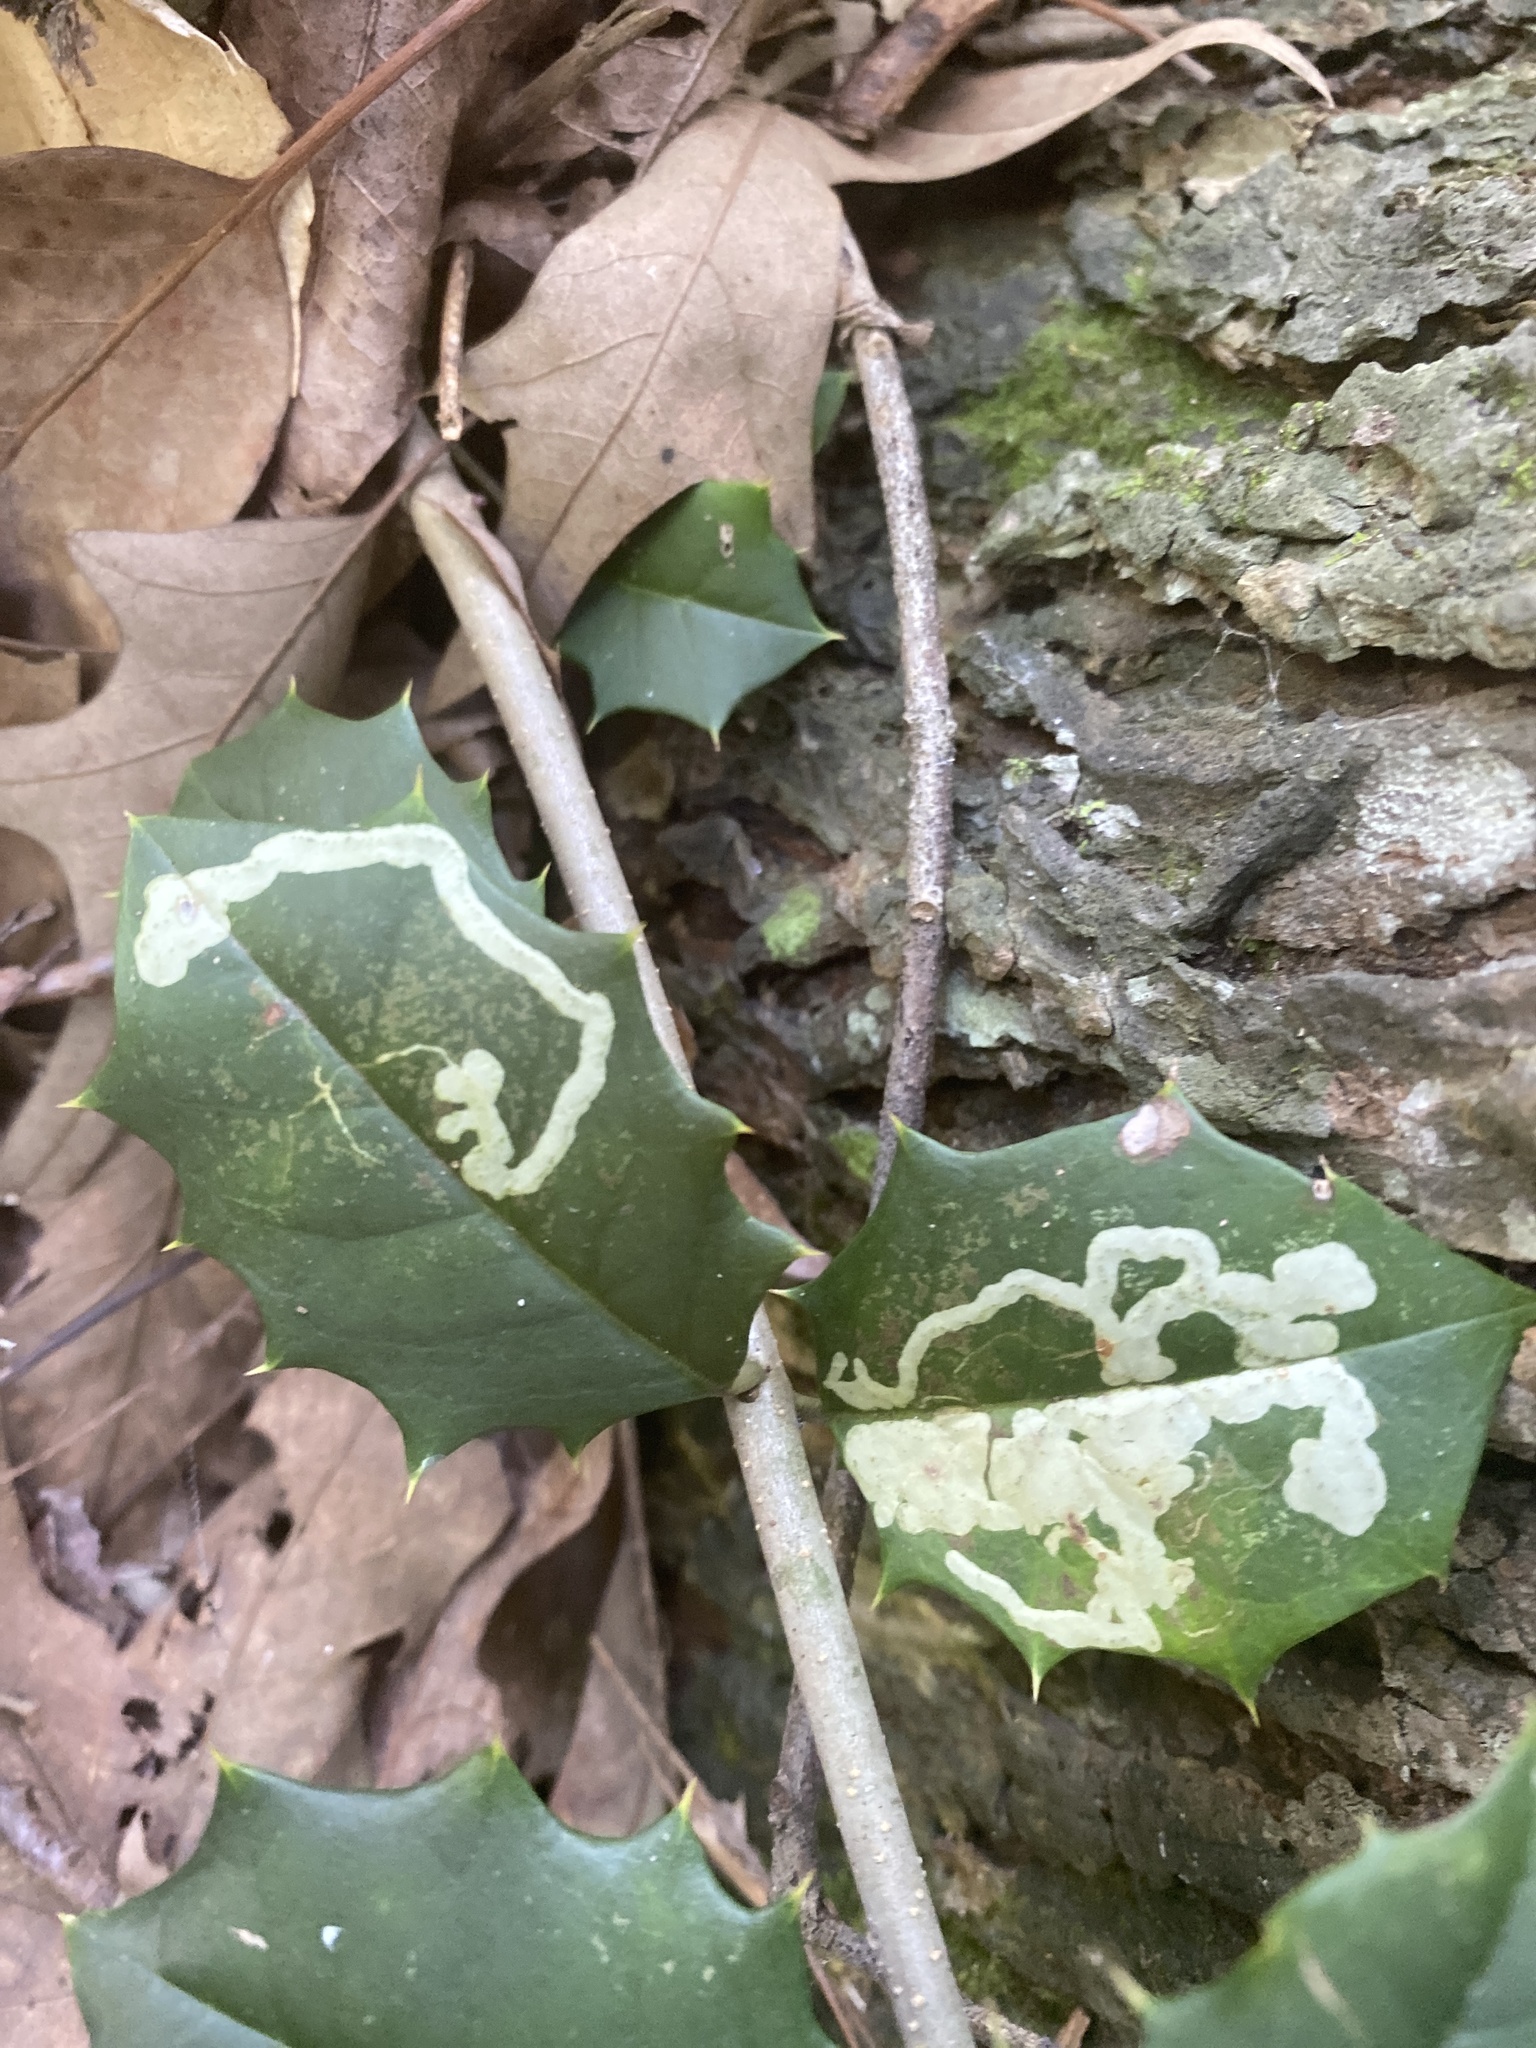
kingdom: Animalia
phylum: Arthropoda
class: Insecta
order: Diptera
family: Agromyzidae
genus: Phytomyza
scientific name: Phytomyza ilicicola
